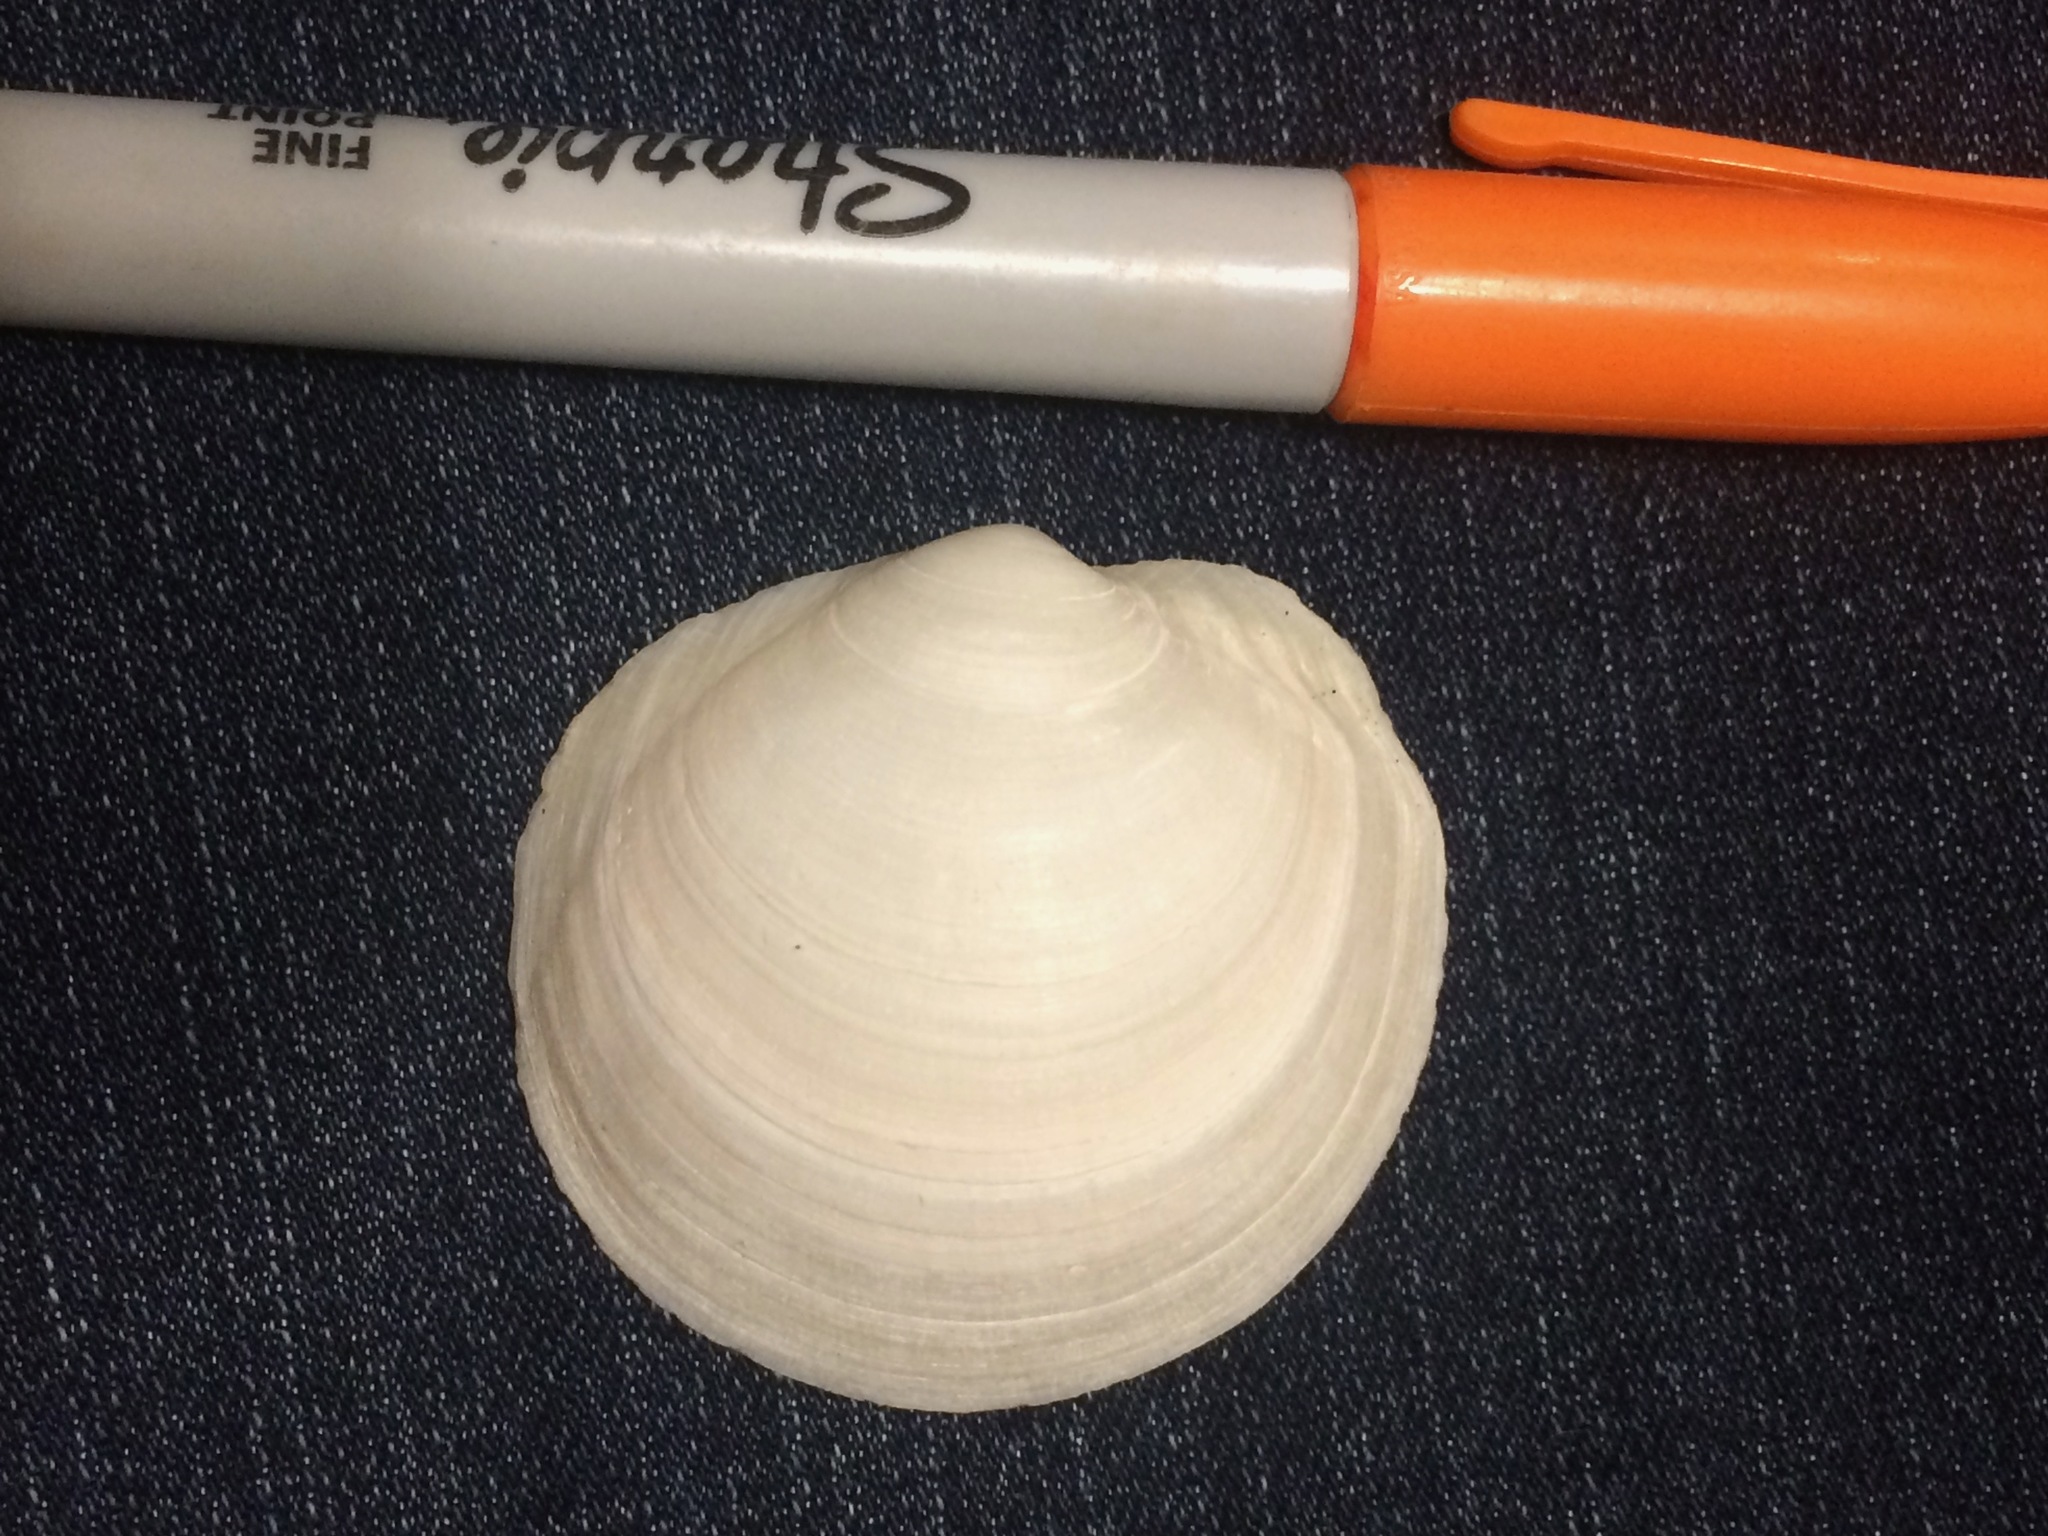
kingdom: Animalia
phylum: Mollusca
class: Bivalvia
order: Lucinida
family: Lucinidae
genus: Anodontia
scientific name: Anodontia alba
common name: Buttercup lucine
